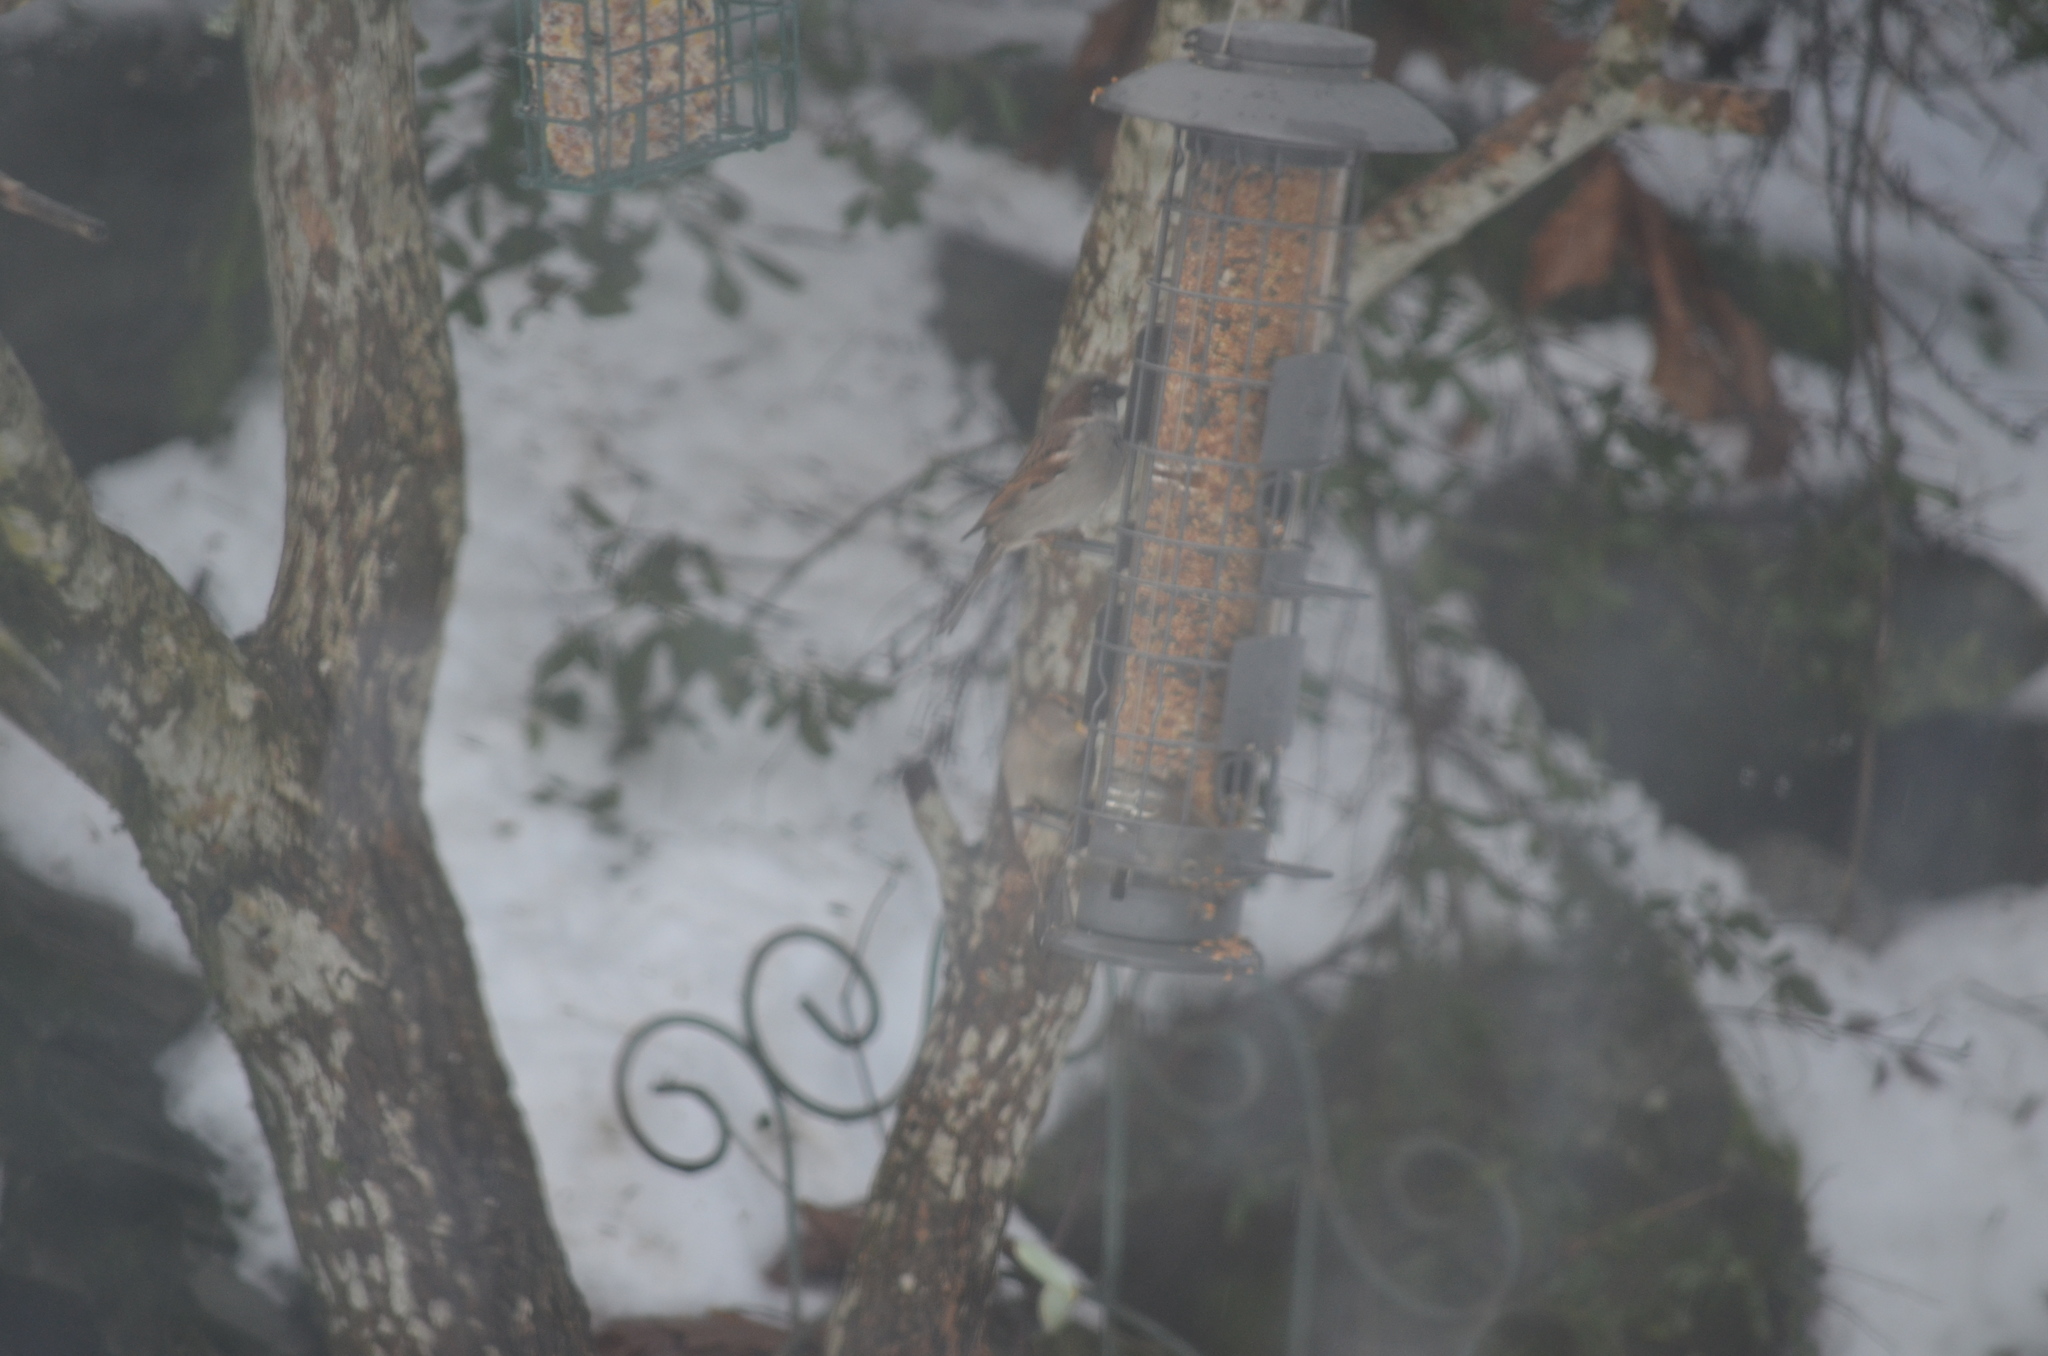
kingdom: Animalia
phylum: Chordata
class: Aves
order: Passeriformes
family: Passeridae
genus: Passer
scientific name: Passer domesticus
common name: House sparrow
